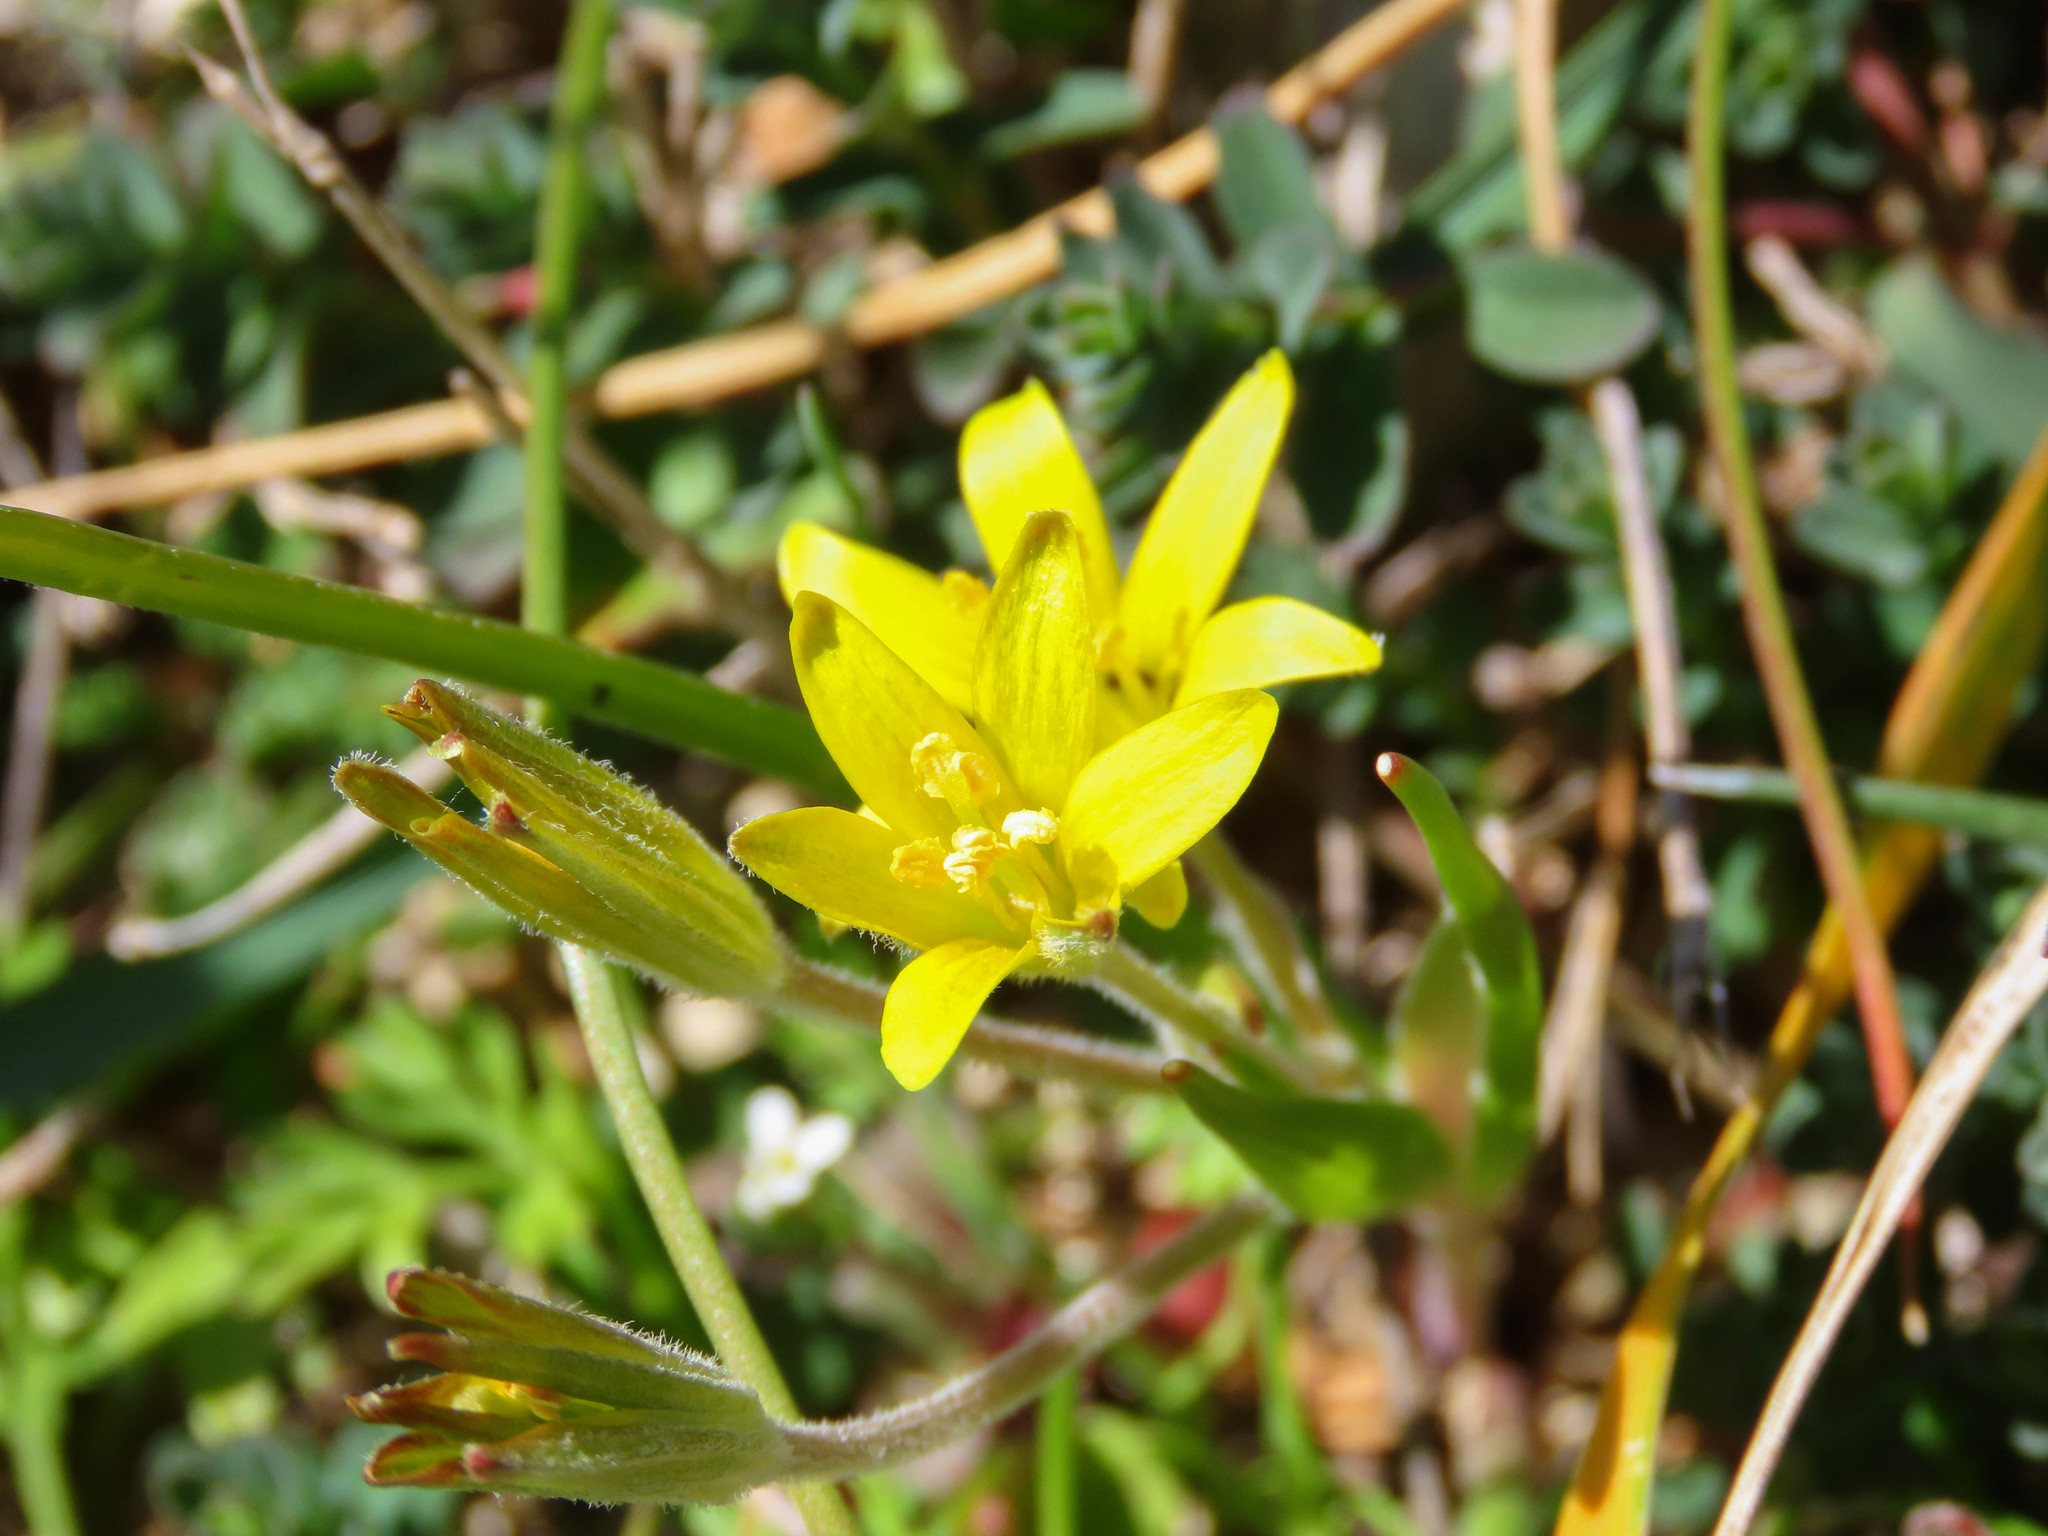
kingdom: Plantae
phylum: Tracheophyta
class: Liliopsida
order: Liliales
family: Liliaceae
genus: Gagea
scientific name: Gagea villosa
